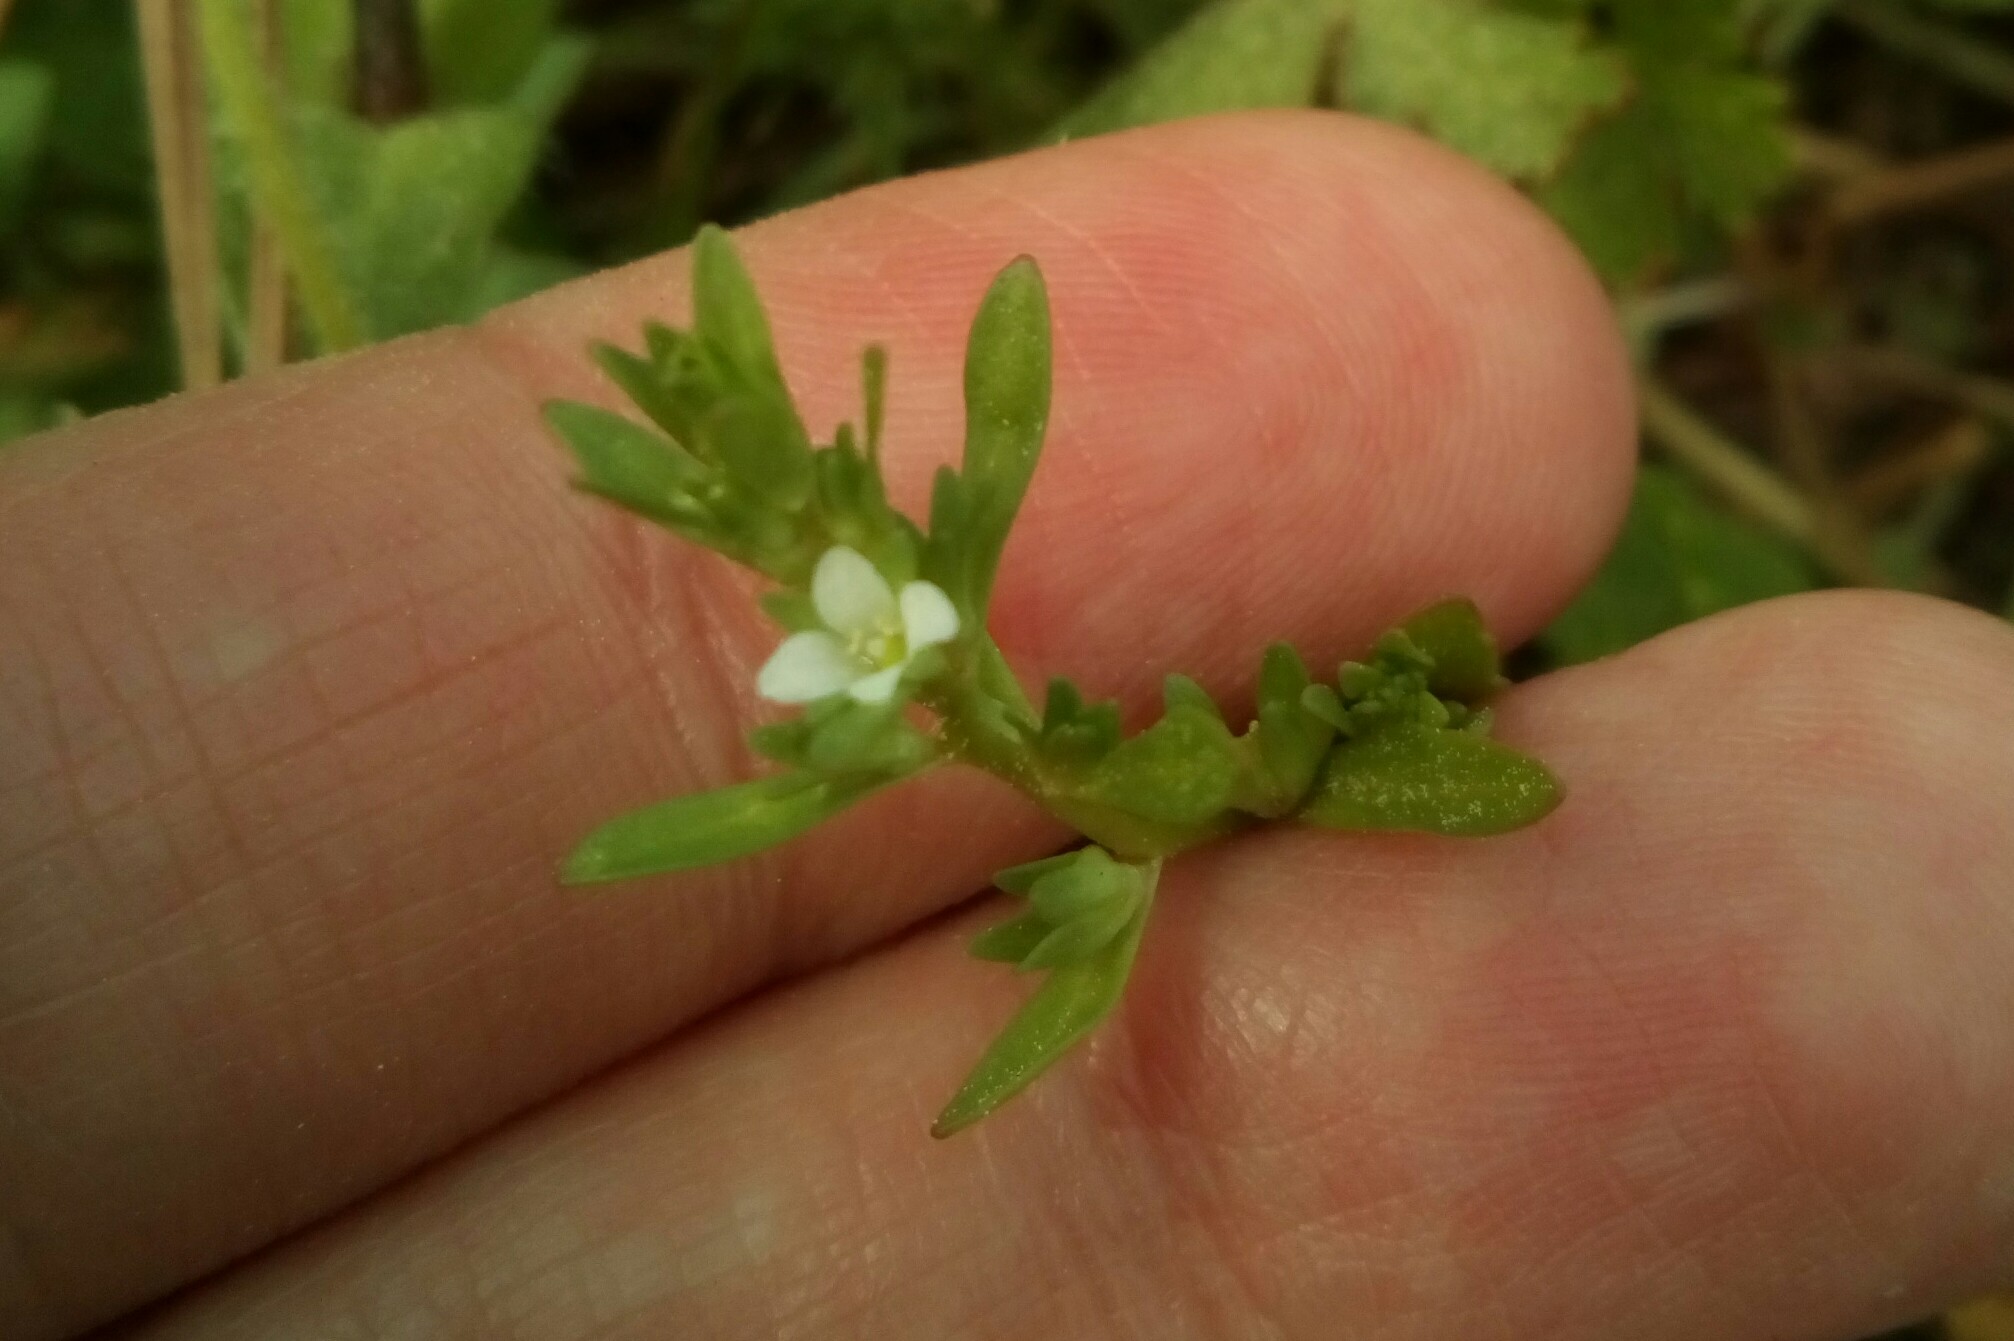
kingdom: Plantae
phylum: Tracheophyta
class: Magnoliopsida
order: Lamiales
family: Plantaginaceae
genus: Veronica
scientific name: Veronica peregrina
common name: Neckweed
